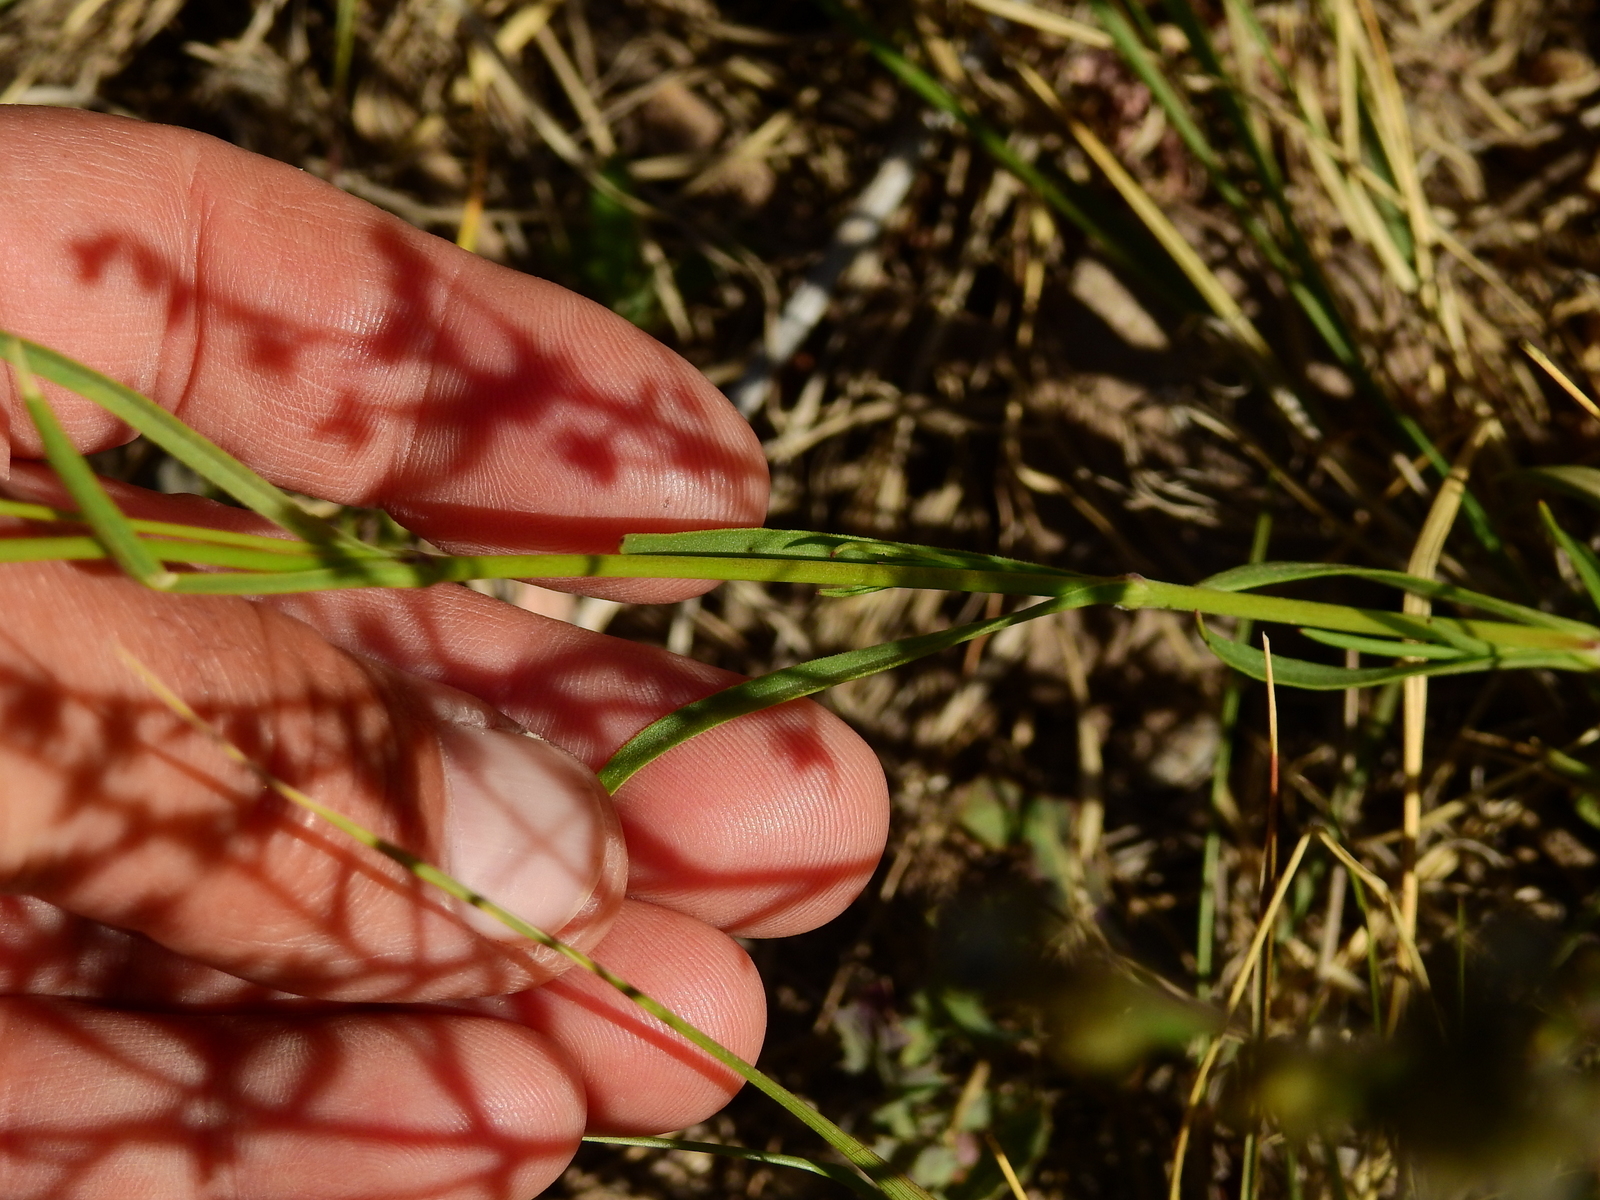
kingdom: Plantae
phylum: Tracheophyta
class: Magnoliopsida
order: Caryophyllales
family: Caryophyllaceae
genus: Silene
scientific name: Silene antirrhina
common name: Sleepy catchfly
